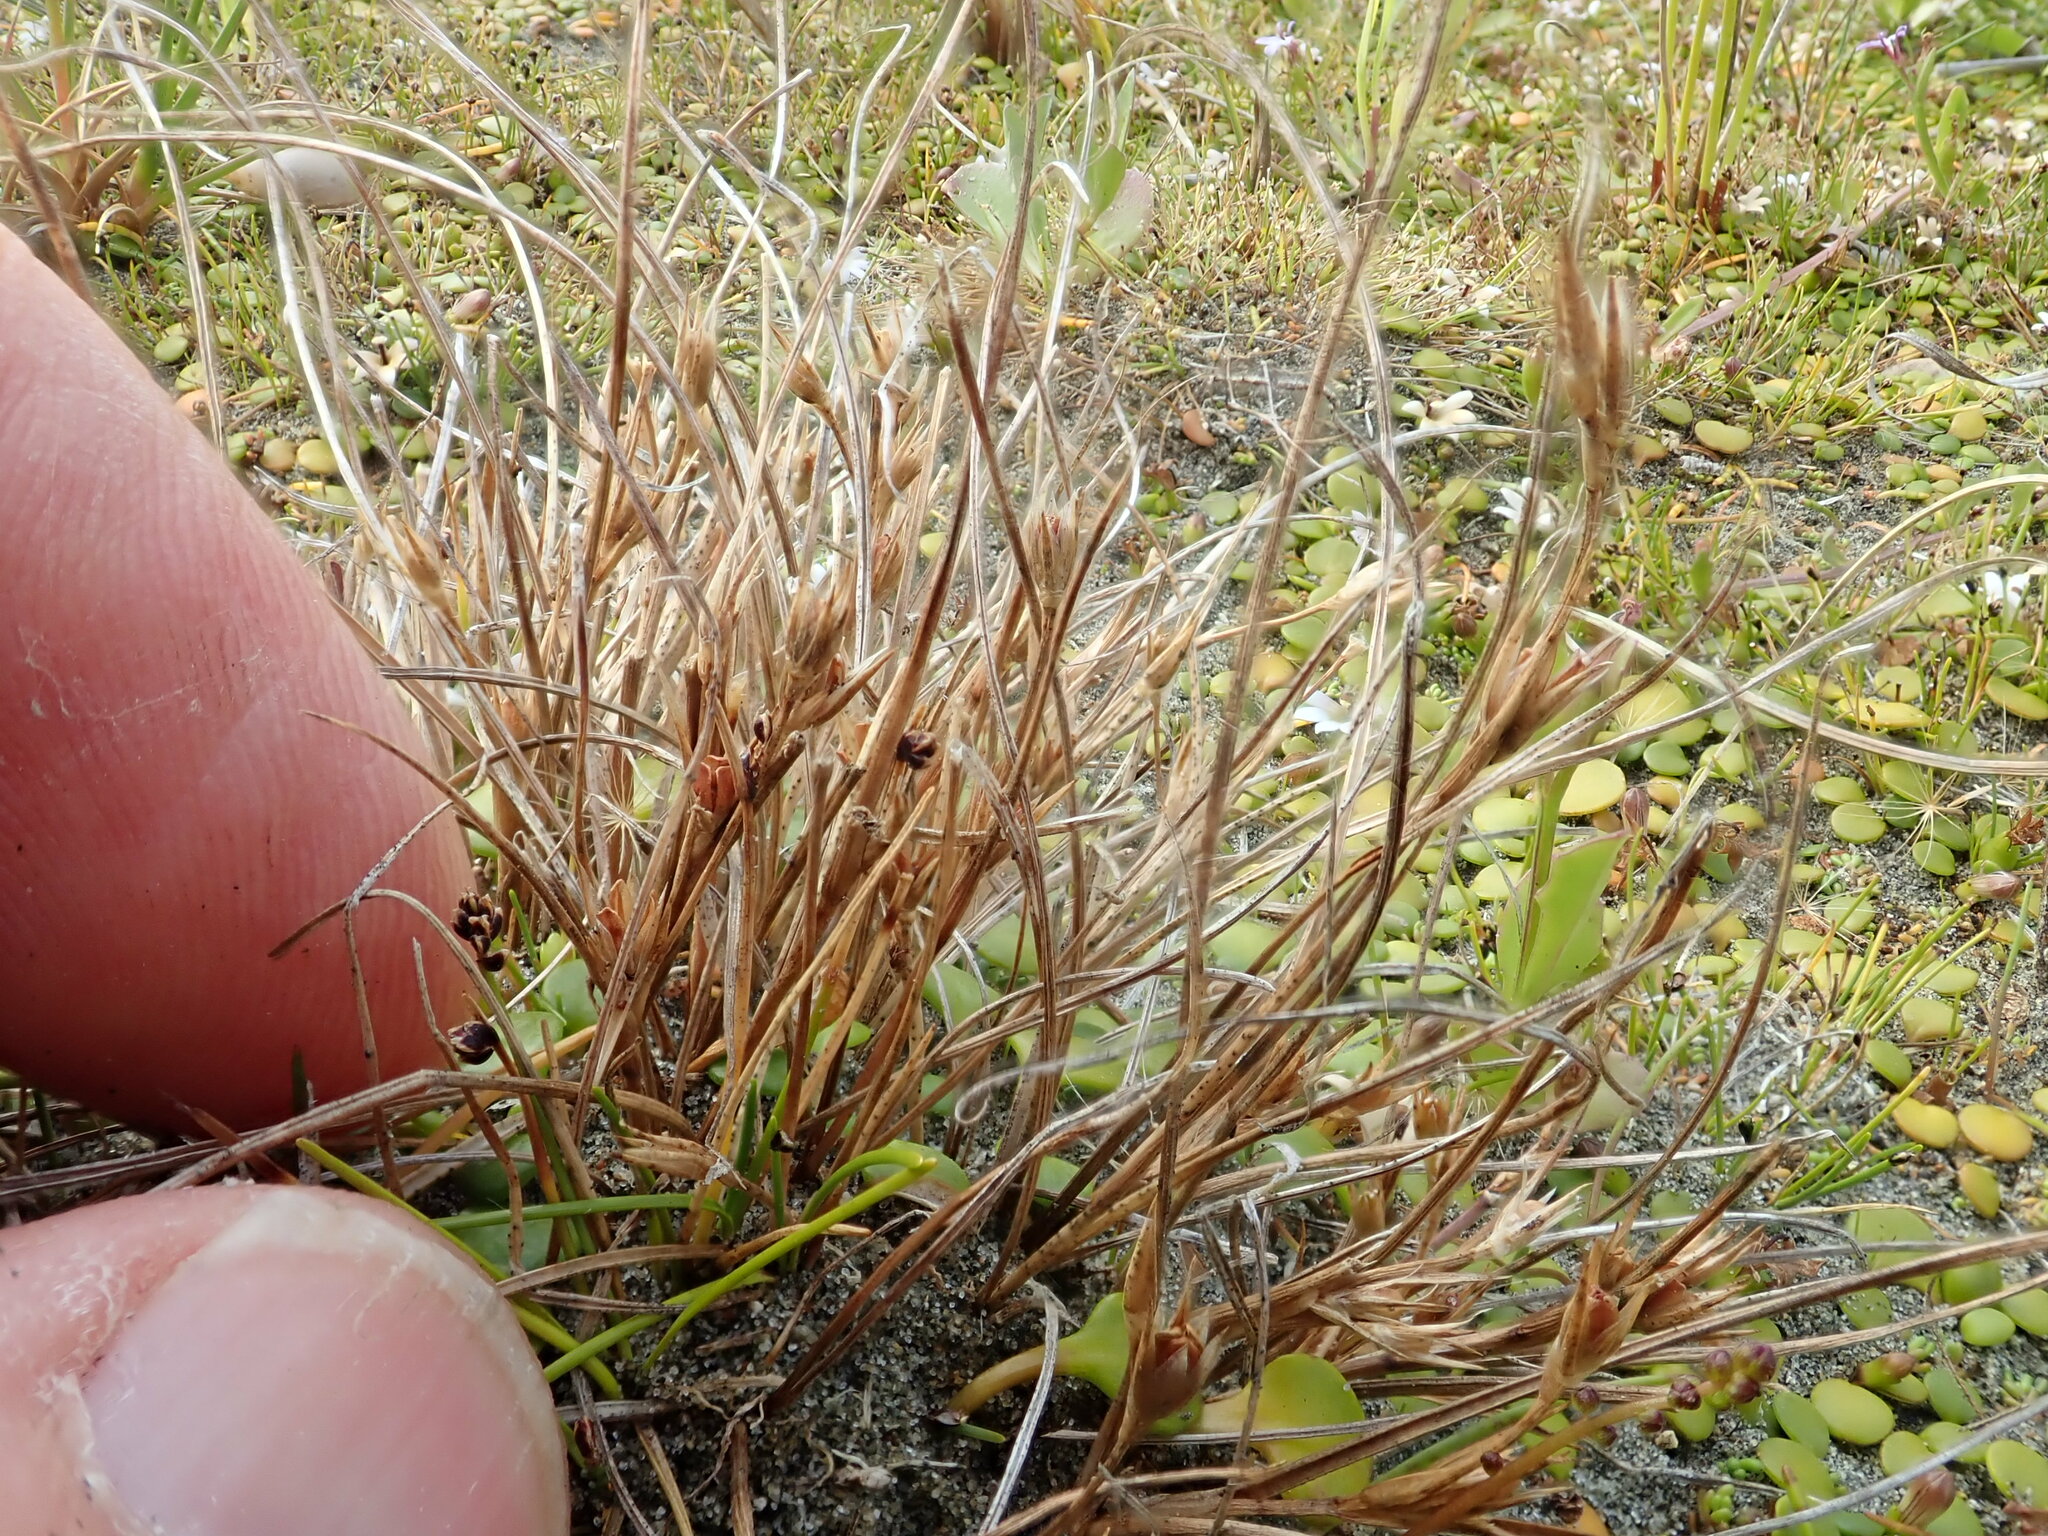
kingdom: Plantae
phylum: Tracheophyta
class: Liliopsida
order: Poales
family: Juncaceae
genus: Juncus
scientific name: Juncus bufonius
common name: Toad rush
